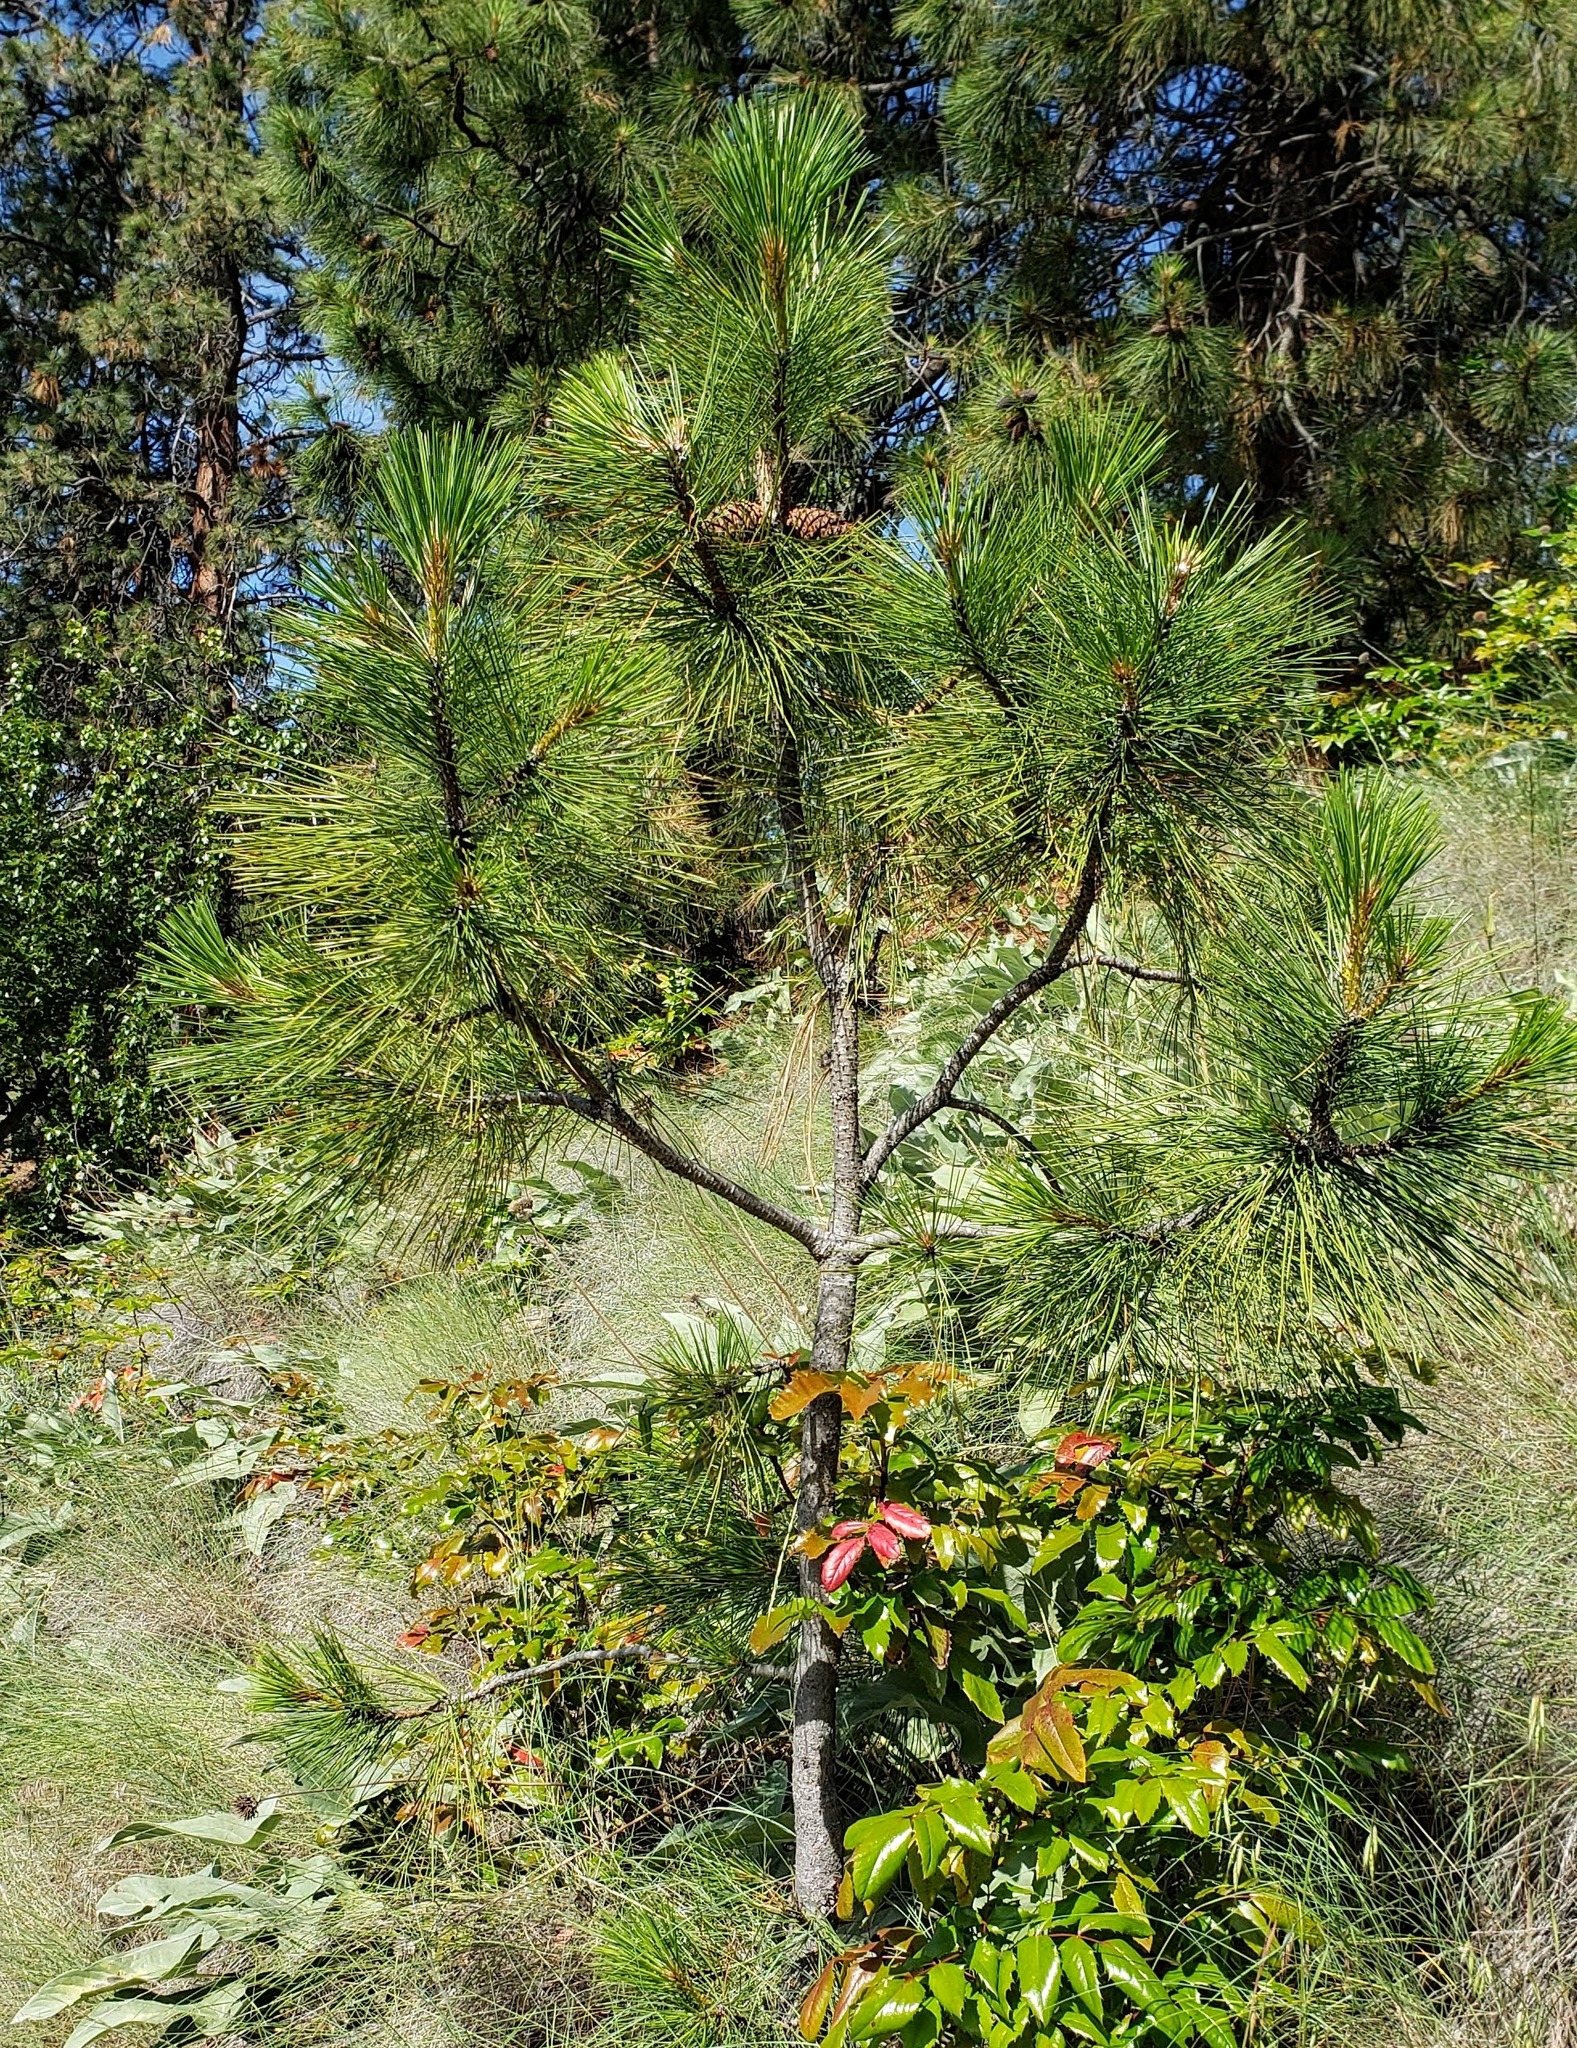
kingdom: Plantae
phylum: Tracheophyta
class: Pinopsida
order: Pinales
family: Pinaceae
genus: Pinus
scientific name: Pinus ponderosa
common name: Western yellow-pine
